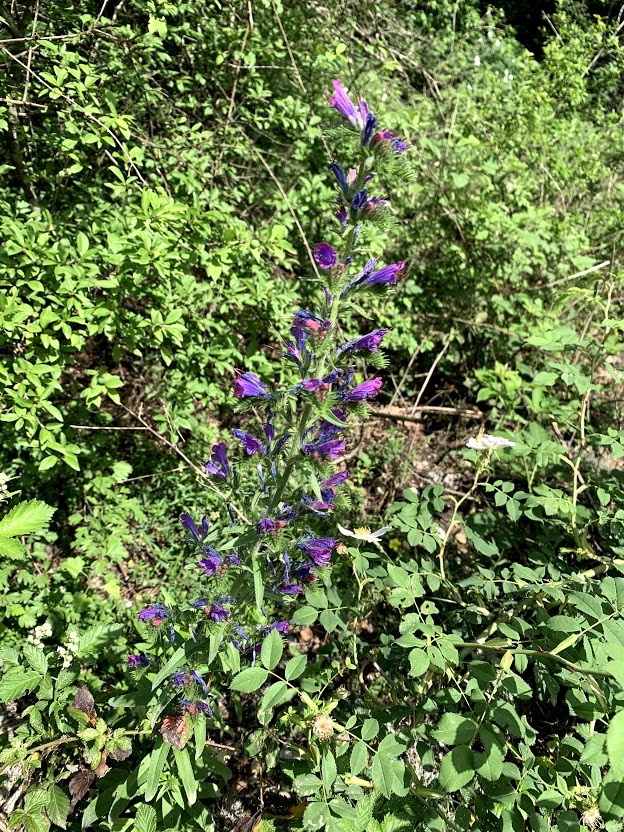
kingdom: Plantae
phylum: Tracheophyta
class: Magnoliopsida
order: Boraginales
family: Boraginaceae
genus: Echium
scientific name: Echium vulgare
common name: Common viper's bugloss
